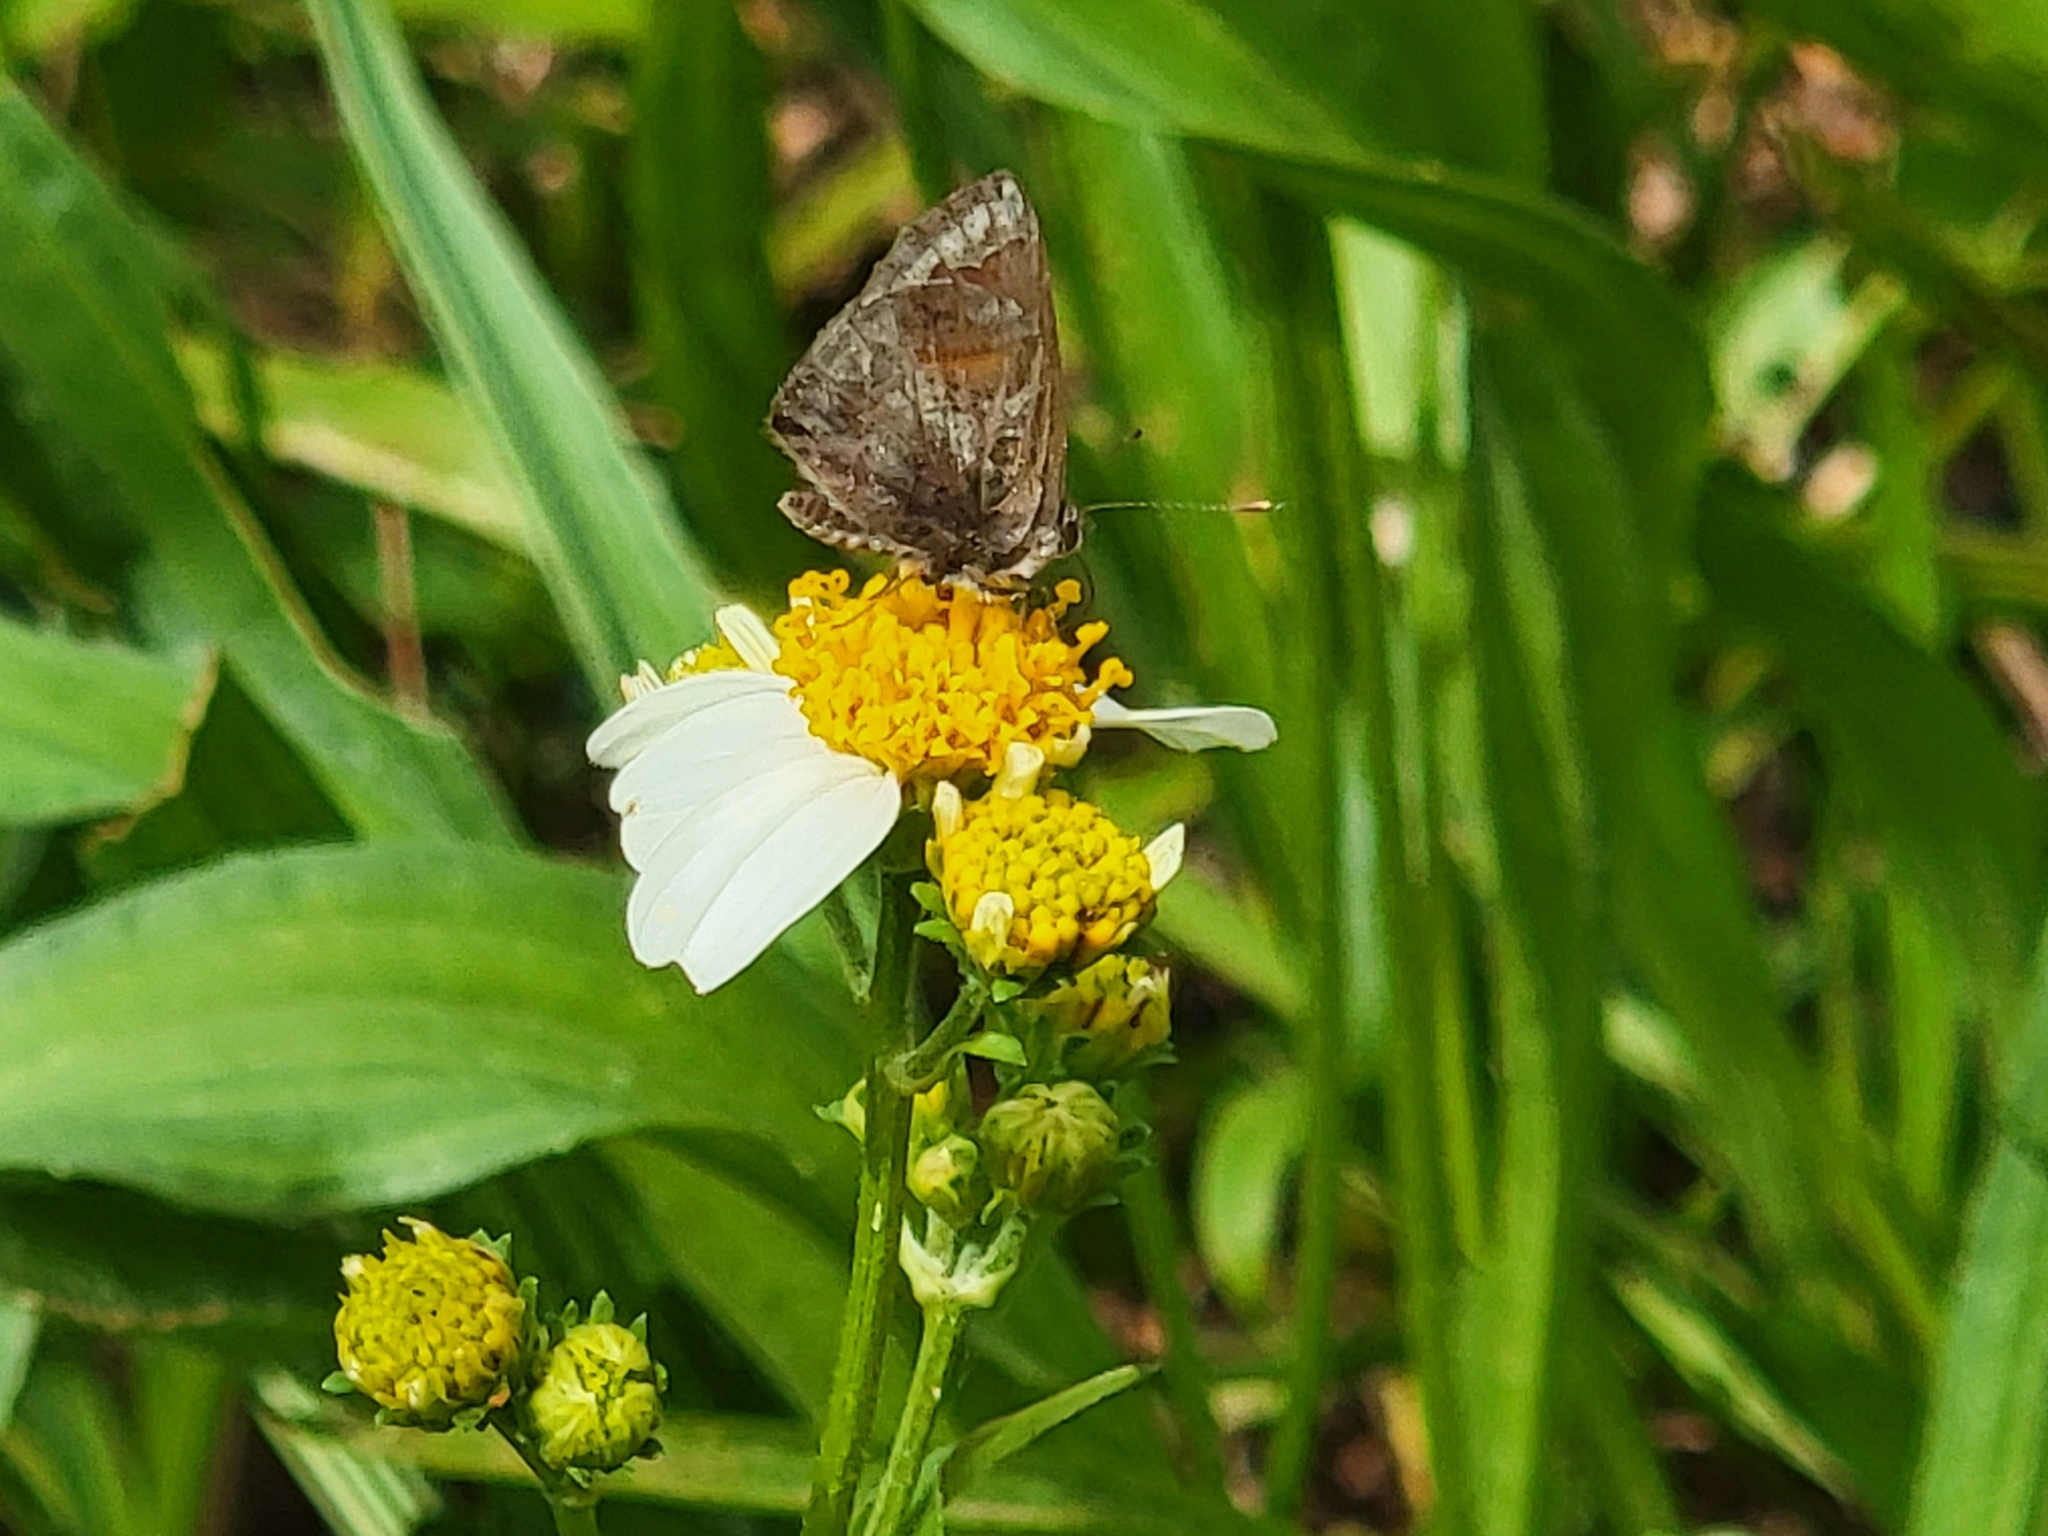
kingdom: Animalia
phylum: Arthropoda
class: Insecta
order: Lepidoptera
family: Lycaenidae
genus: Strymon
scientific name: Strymon bazochii
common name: Lantana scrub-hairstreak
